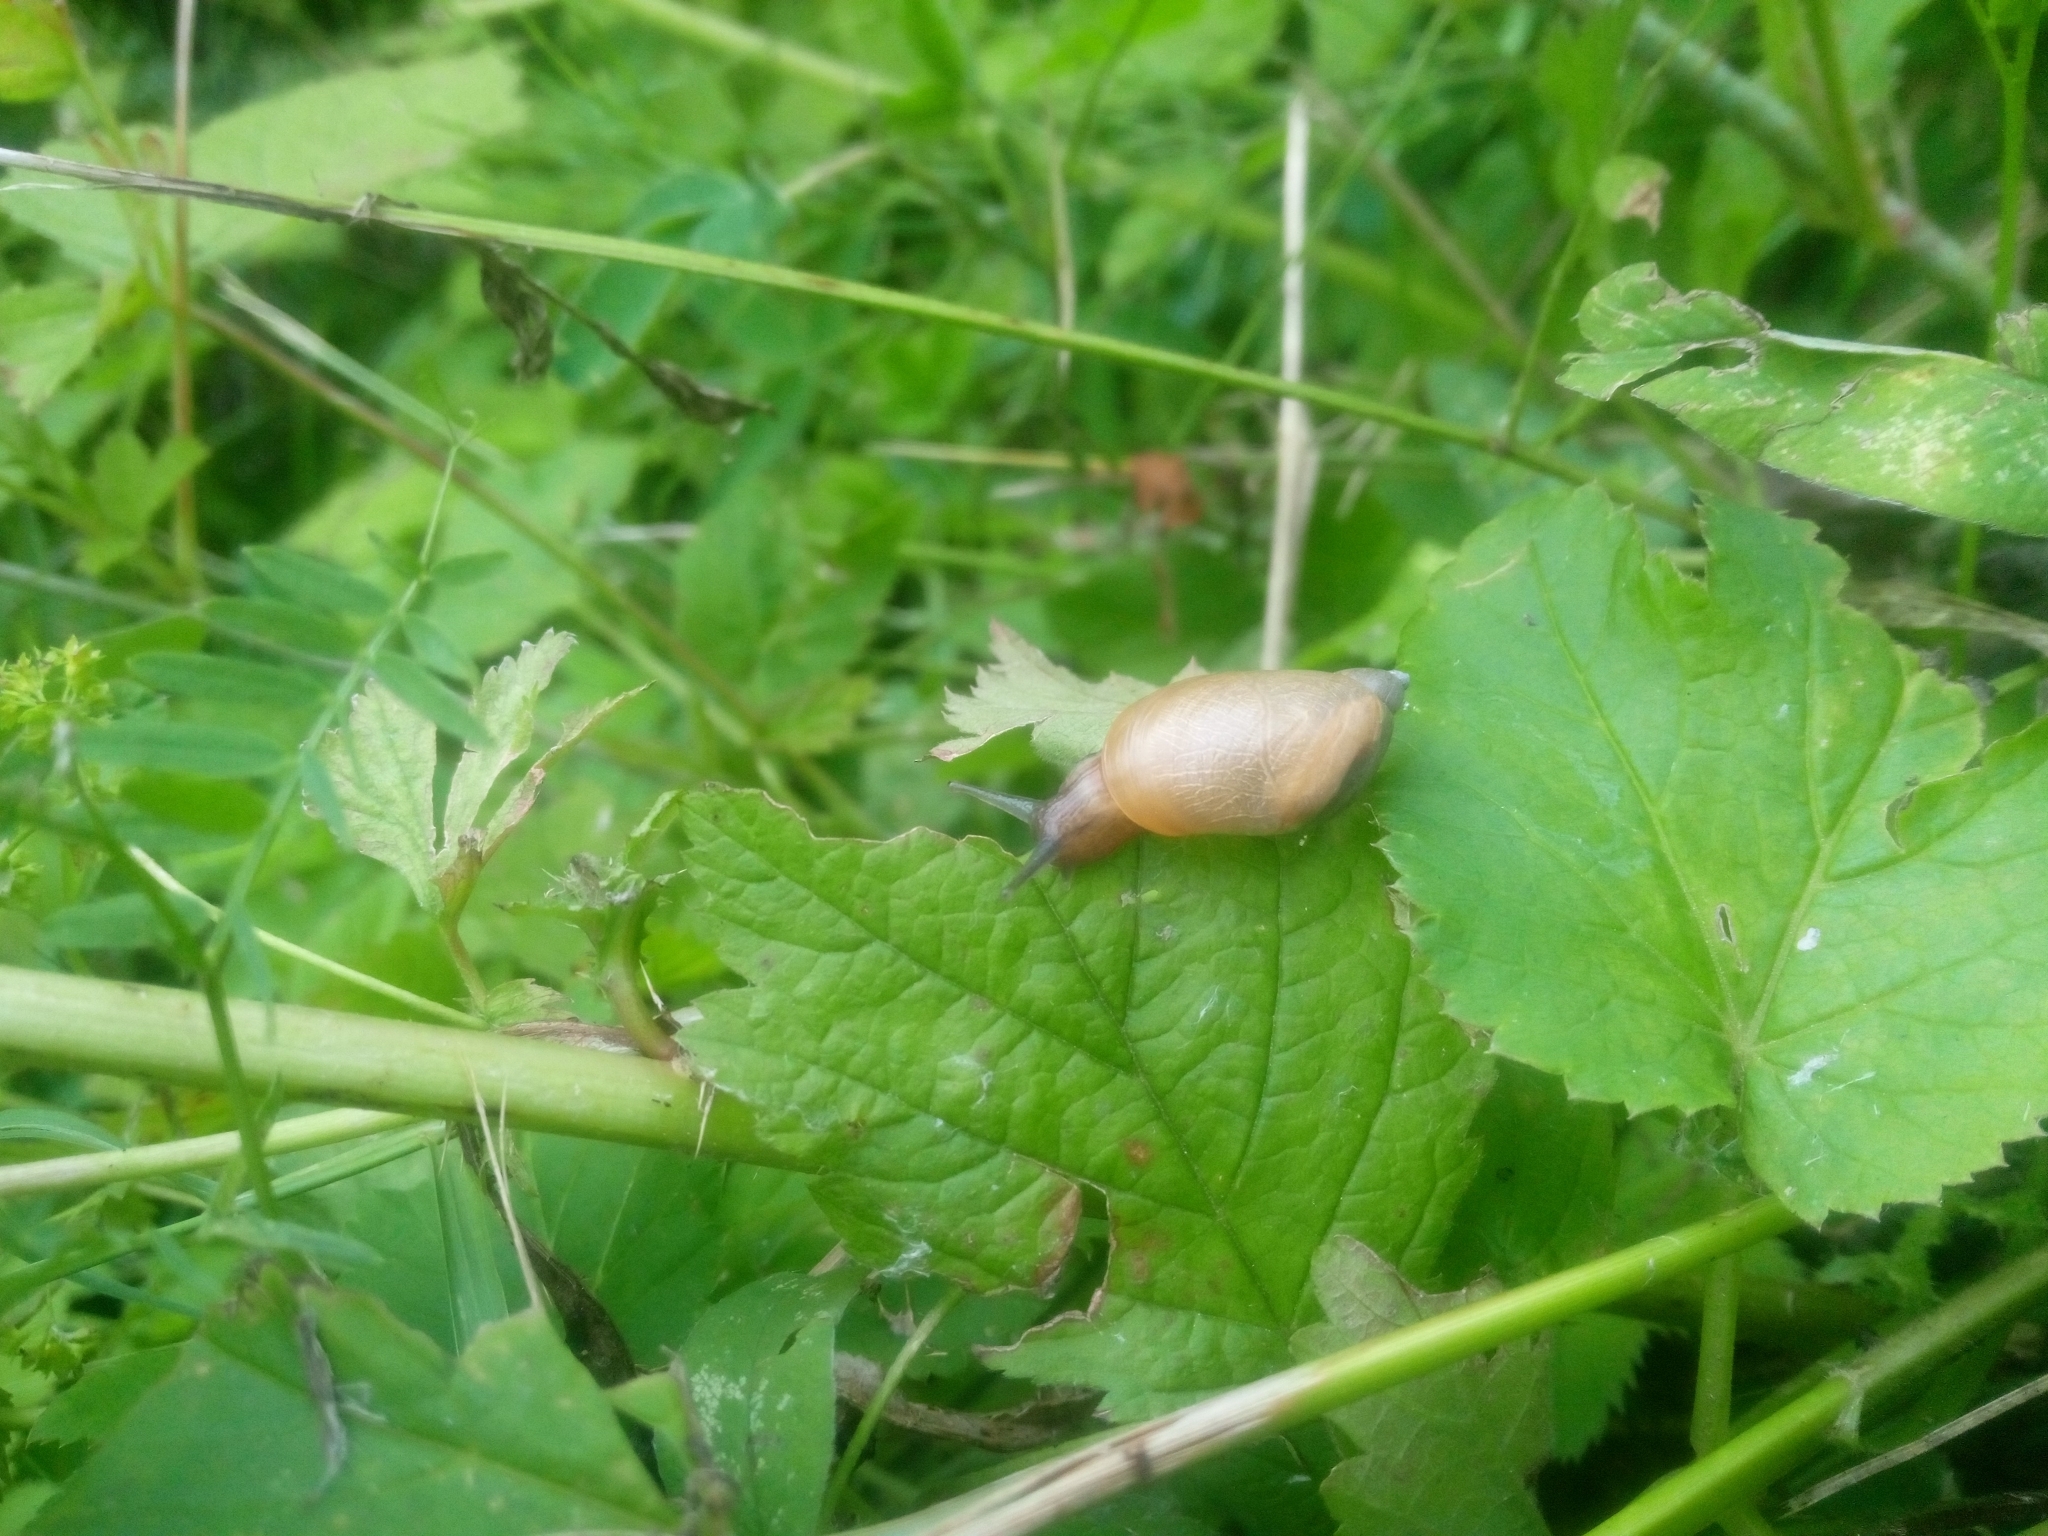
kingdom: Animalia
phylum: Mollusca
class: Gastropoda
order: Stylommatophora
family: Succineidae
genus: Succinea
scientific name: Succinea putris
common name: European ambersnail
